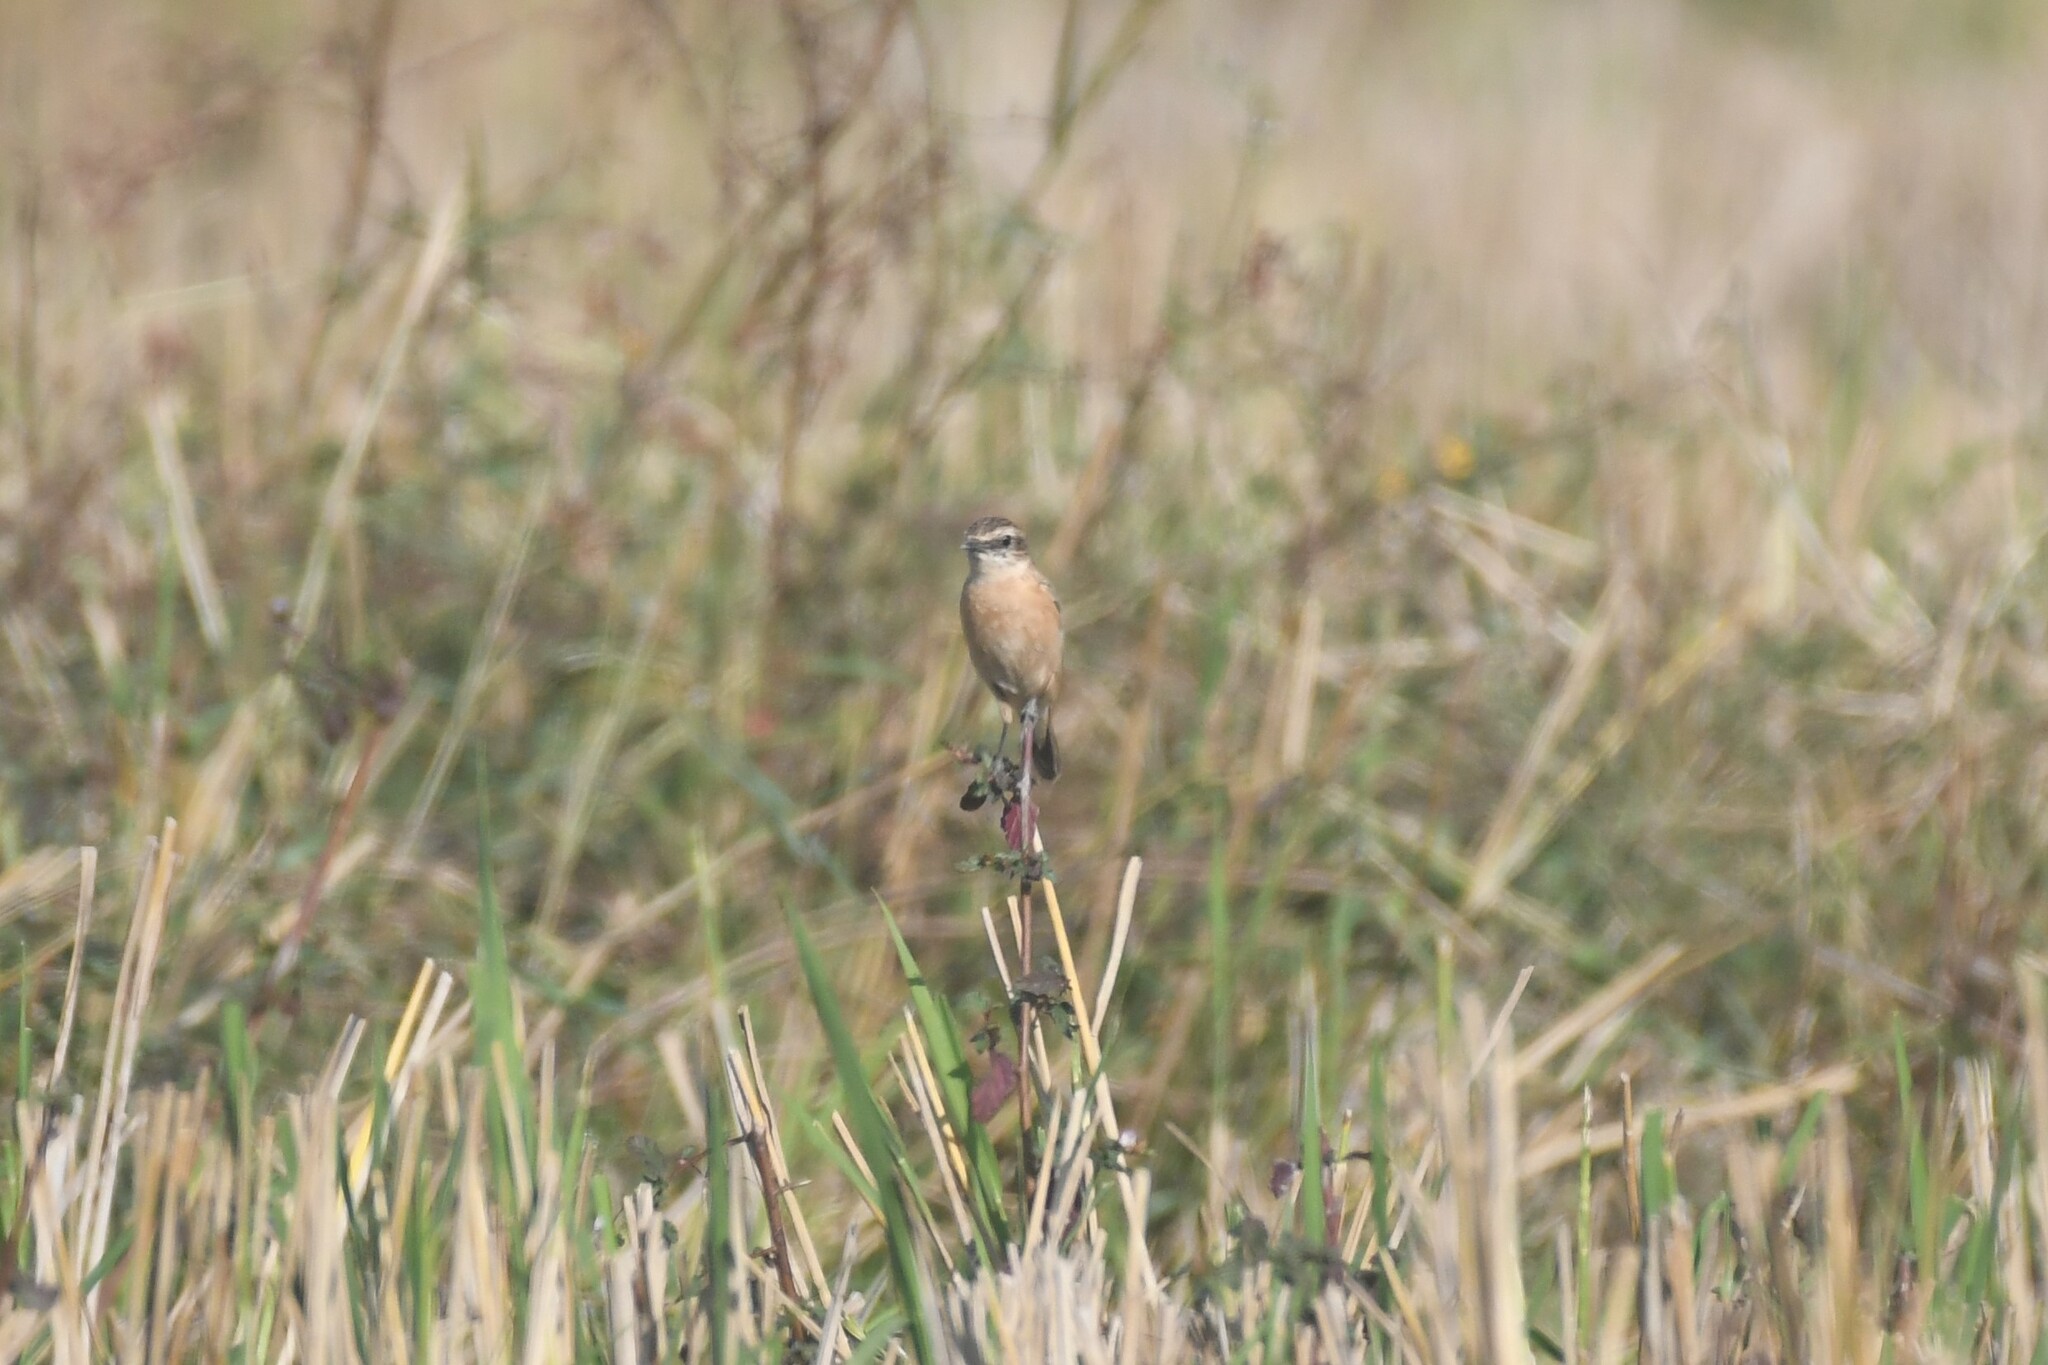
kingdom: Animalia
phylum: Chordata
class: Aves
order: Passeriformes
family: Muscicapidae
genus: Saxicola
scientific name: Saxicola stejnegeri
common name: Stejneger's stonechat
